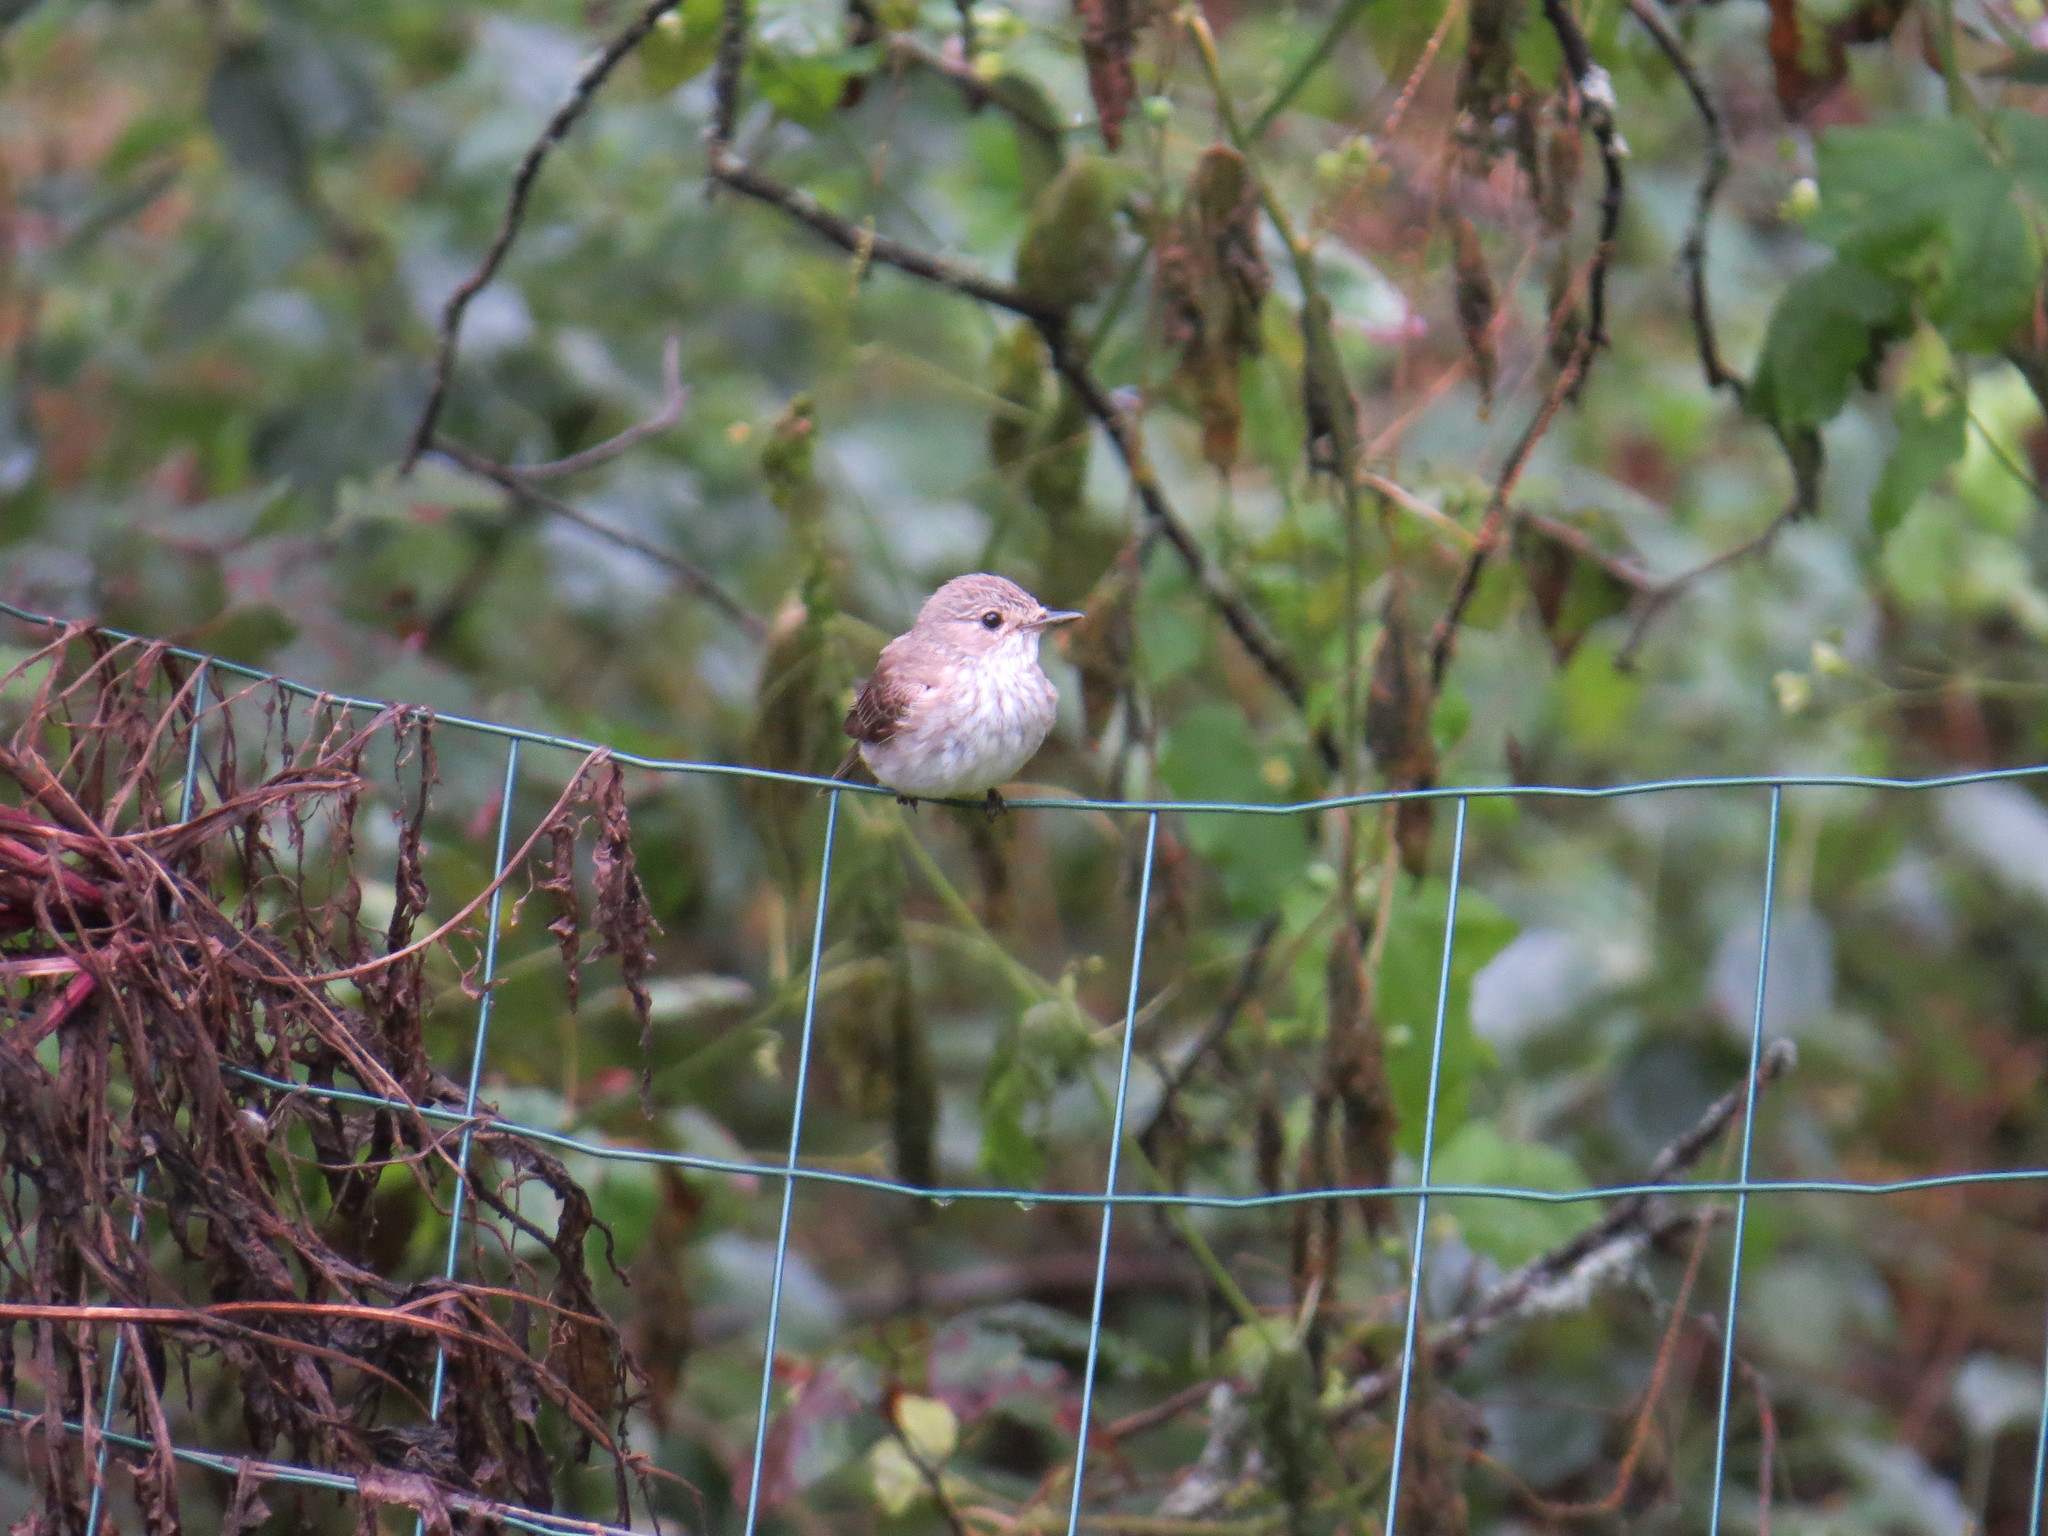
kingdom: Animalia
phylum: Chordata
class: Aves
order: Passeriformes
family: Muscicapidae
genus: Muscicapa
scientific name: Muscicapa striata
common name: Spotted flycatcher
